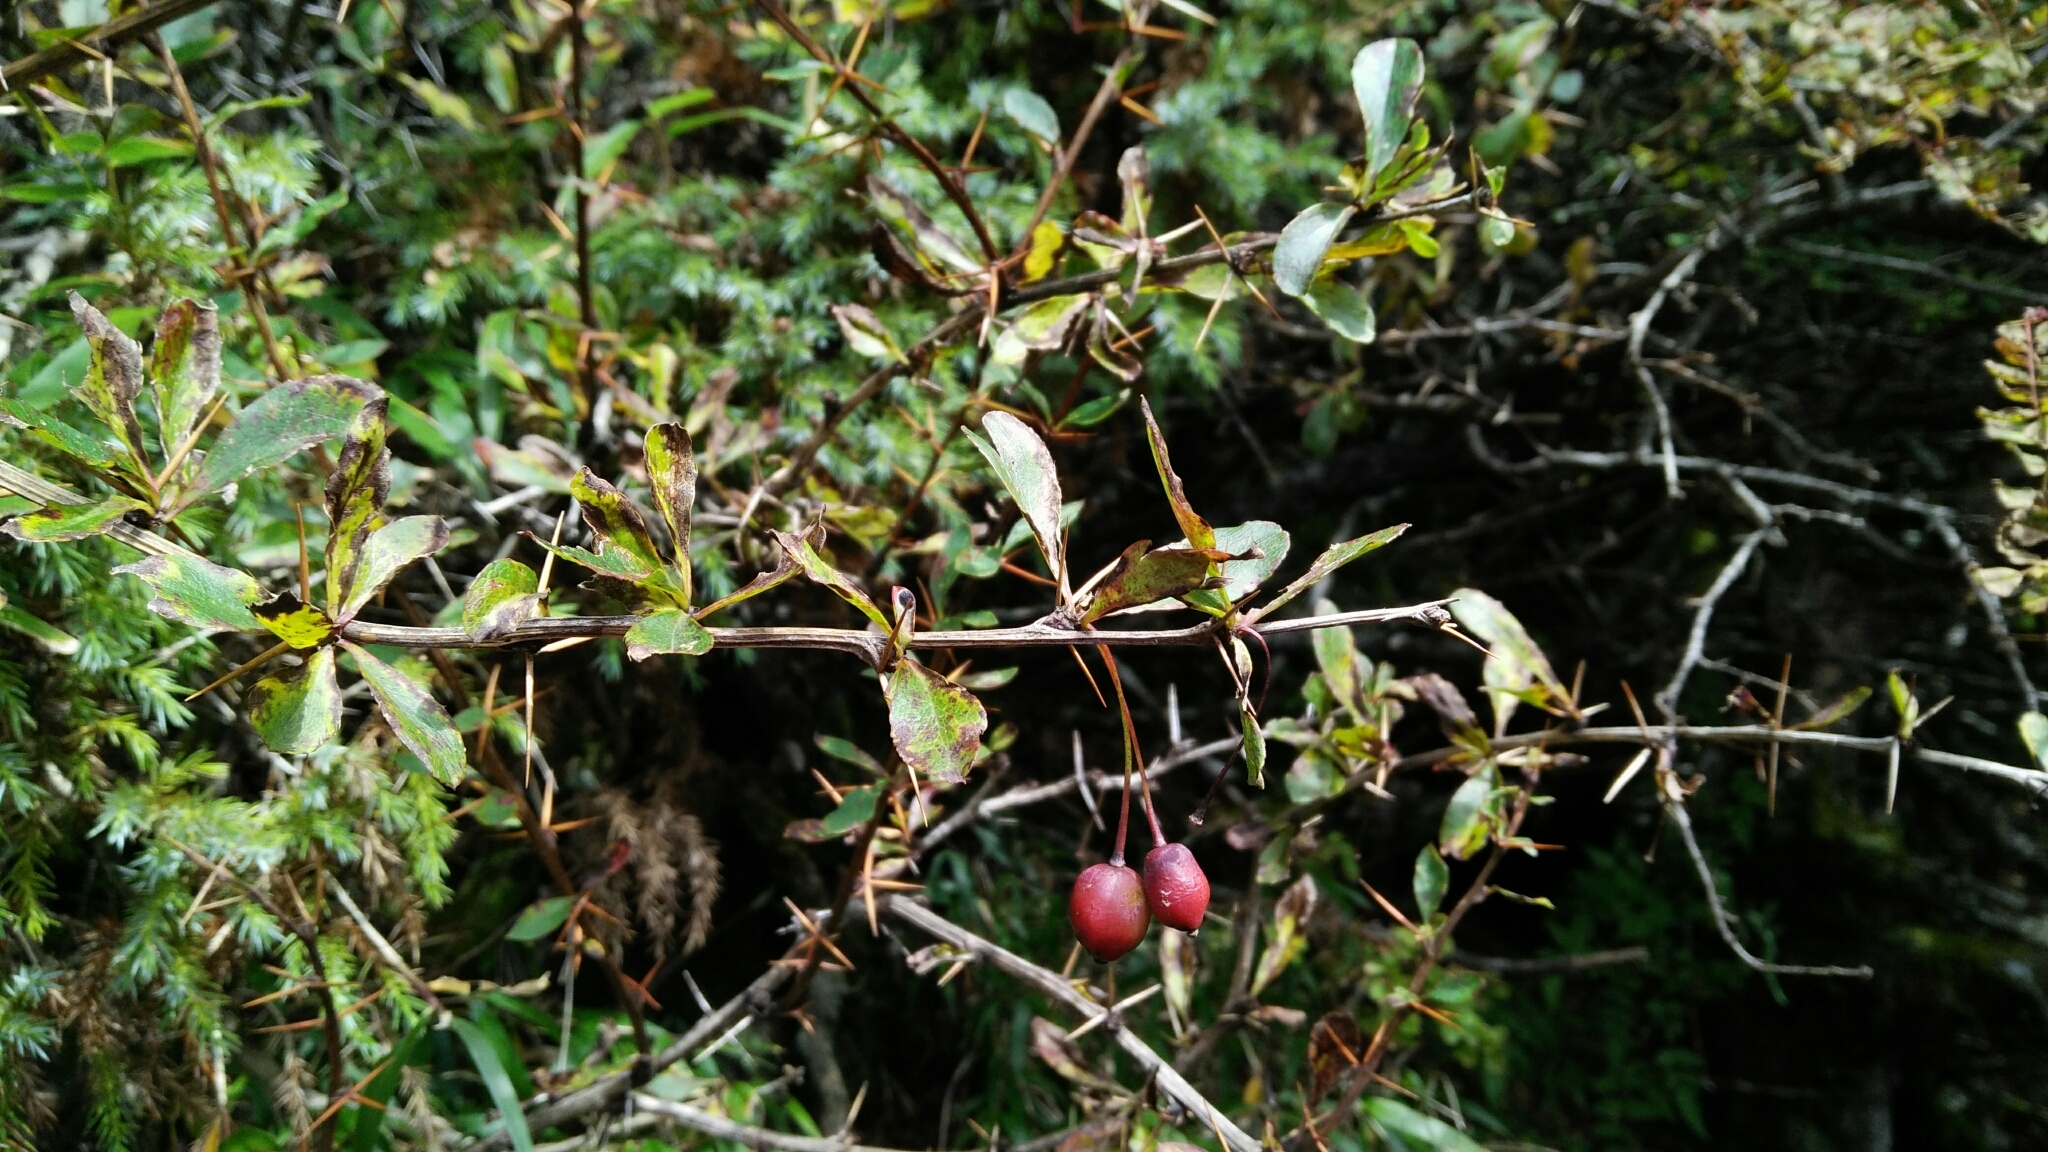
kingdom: Plantae
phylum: Tracheophyta
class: Magnoliopsida
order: Ranunculales
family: Berberidaceae
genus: Berberis
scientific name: Berberis morrisonensis
